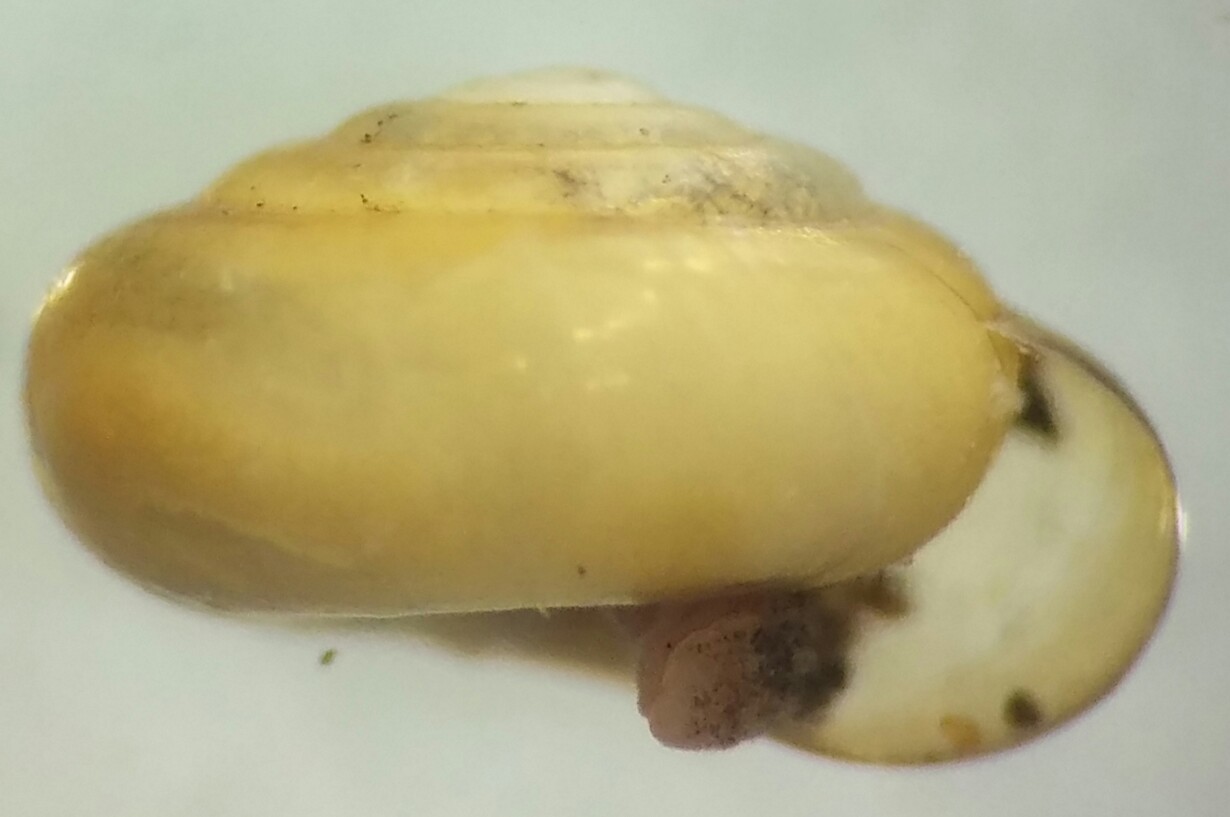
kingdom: Animalia
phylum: Mollusca
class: Gastropoda
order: Stylommatophora
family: Pristilomatidae
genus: Pristiloma
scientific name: Pristiloma chersinella
